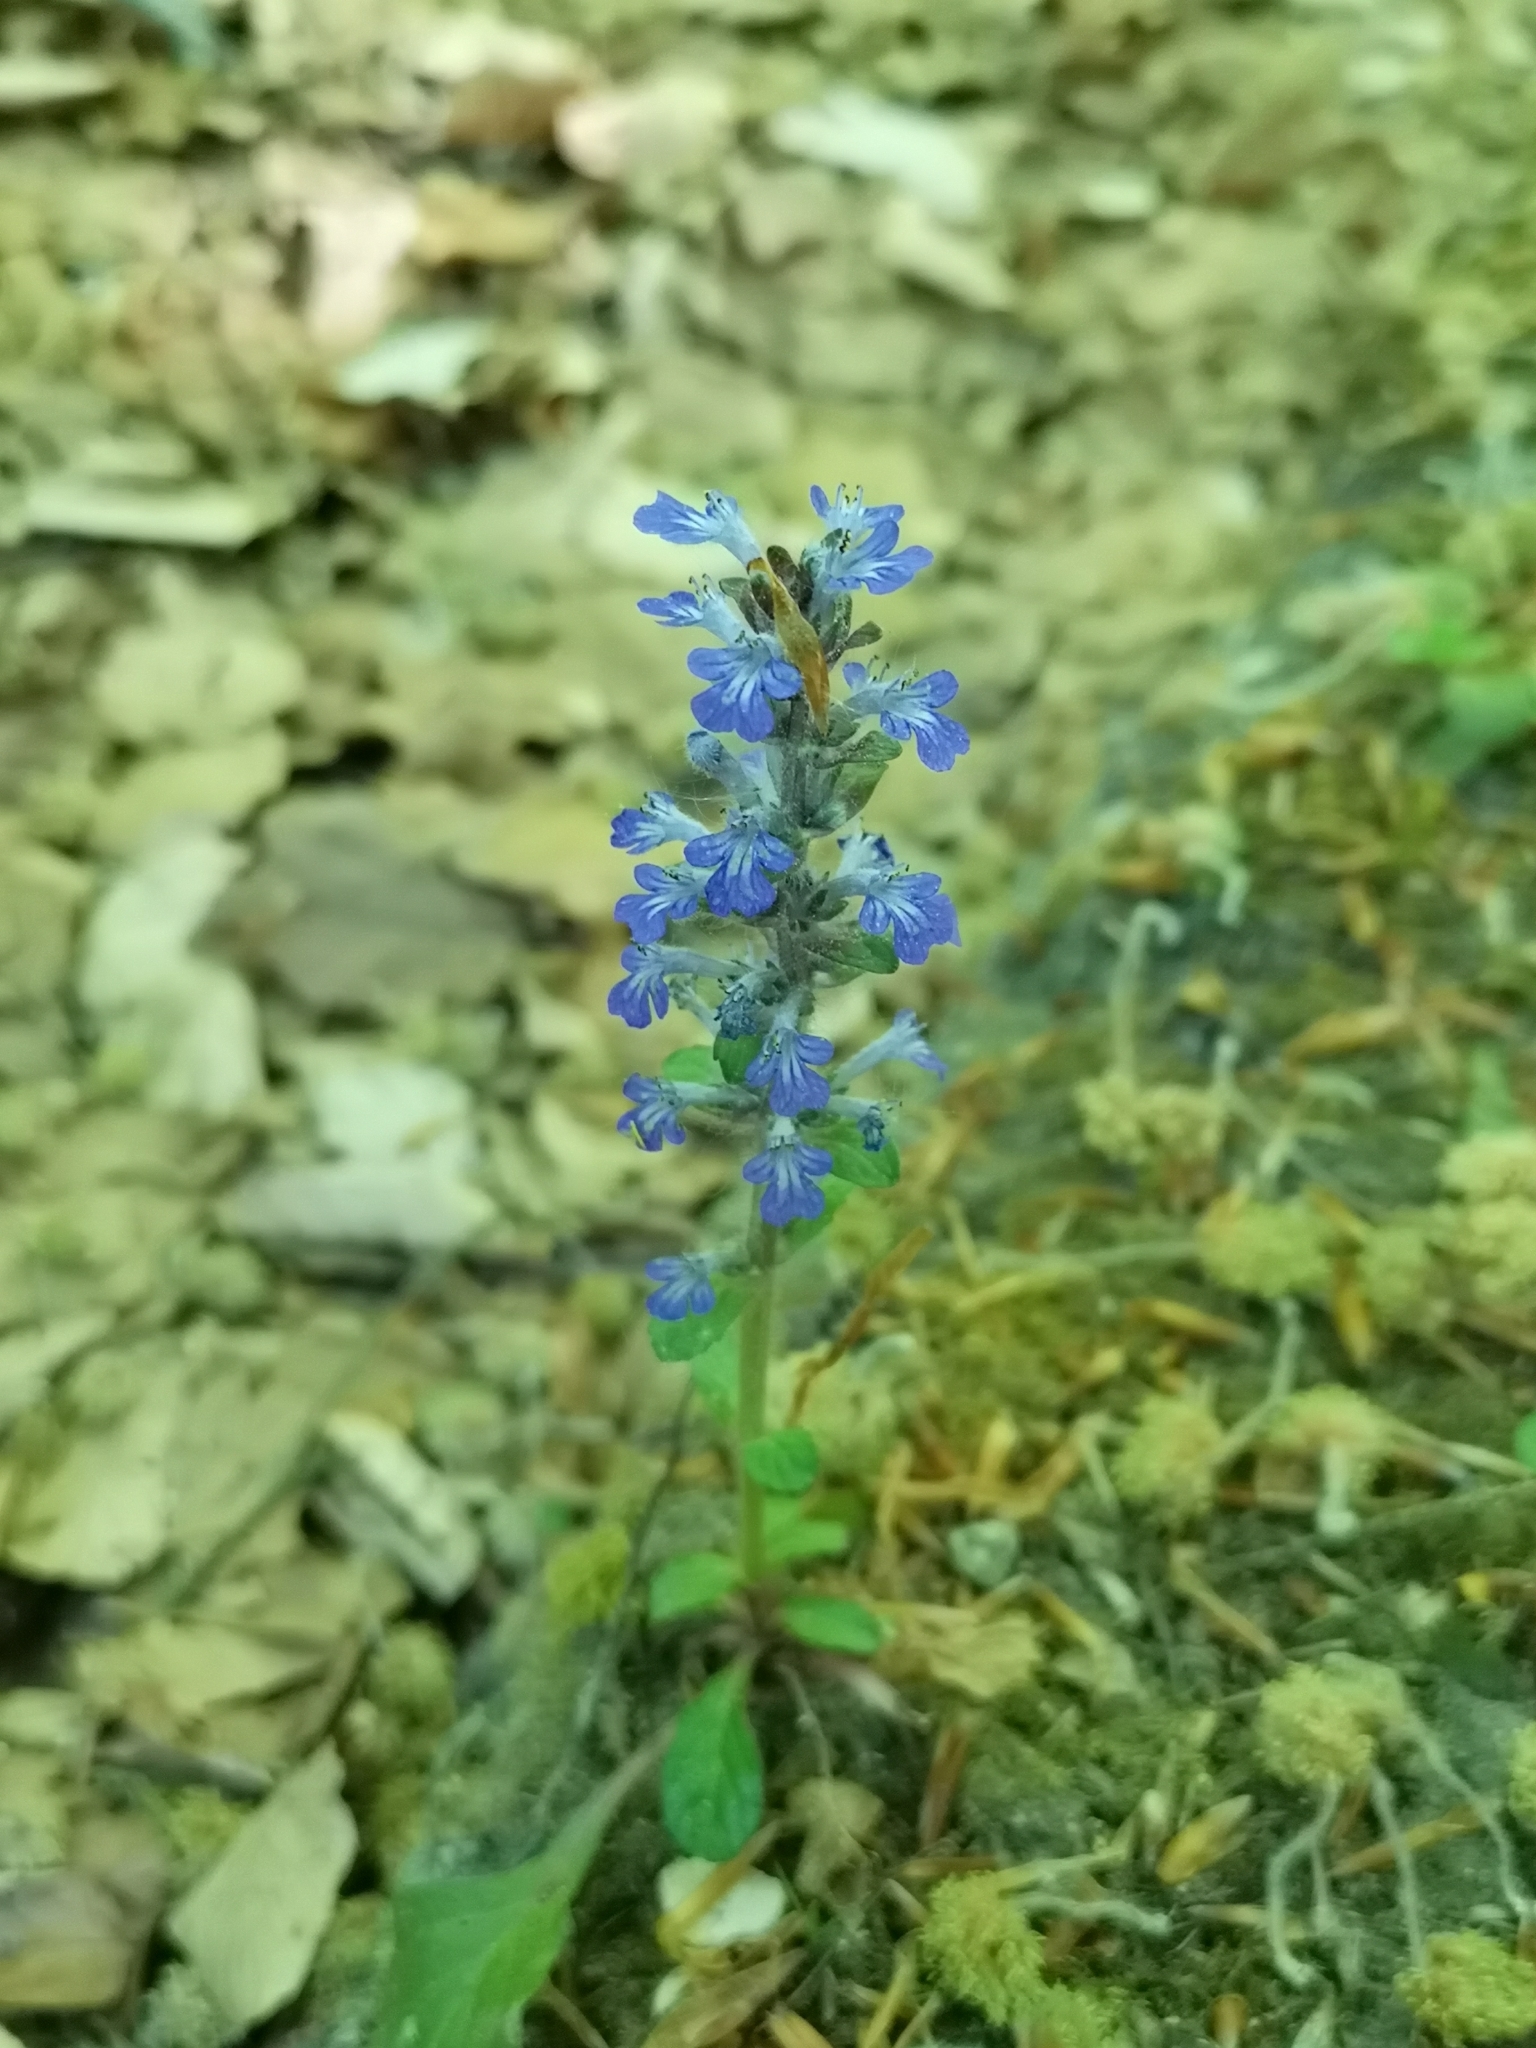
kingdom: Plantae
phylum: Tracheophyta
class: Magnoliopsida
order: Lamiales
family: Lamiaceae
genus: Ajuga
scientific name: Ajuga reptans
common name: Bugle
